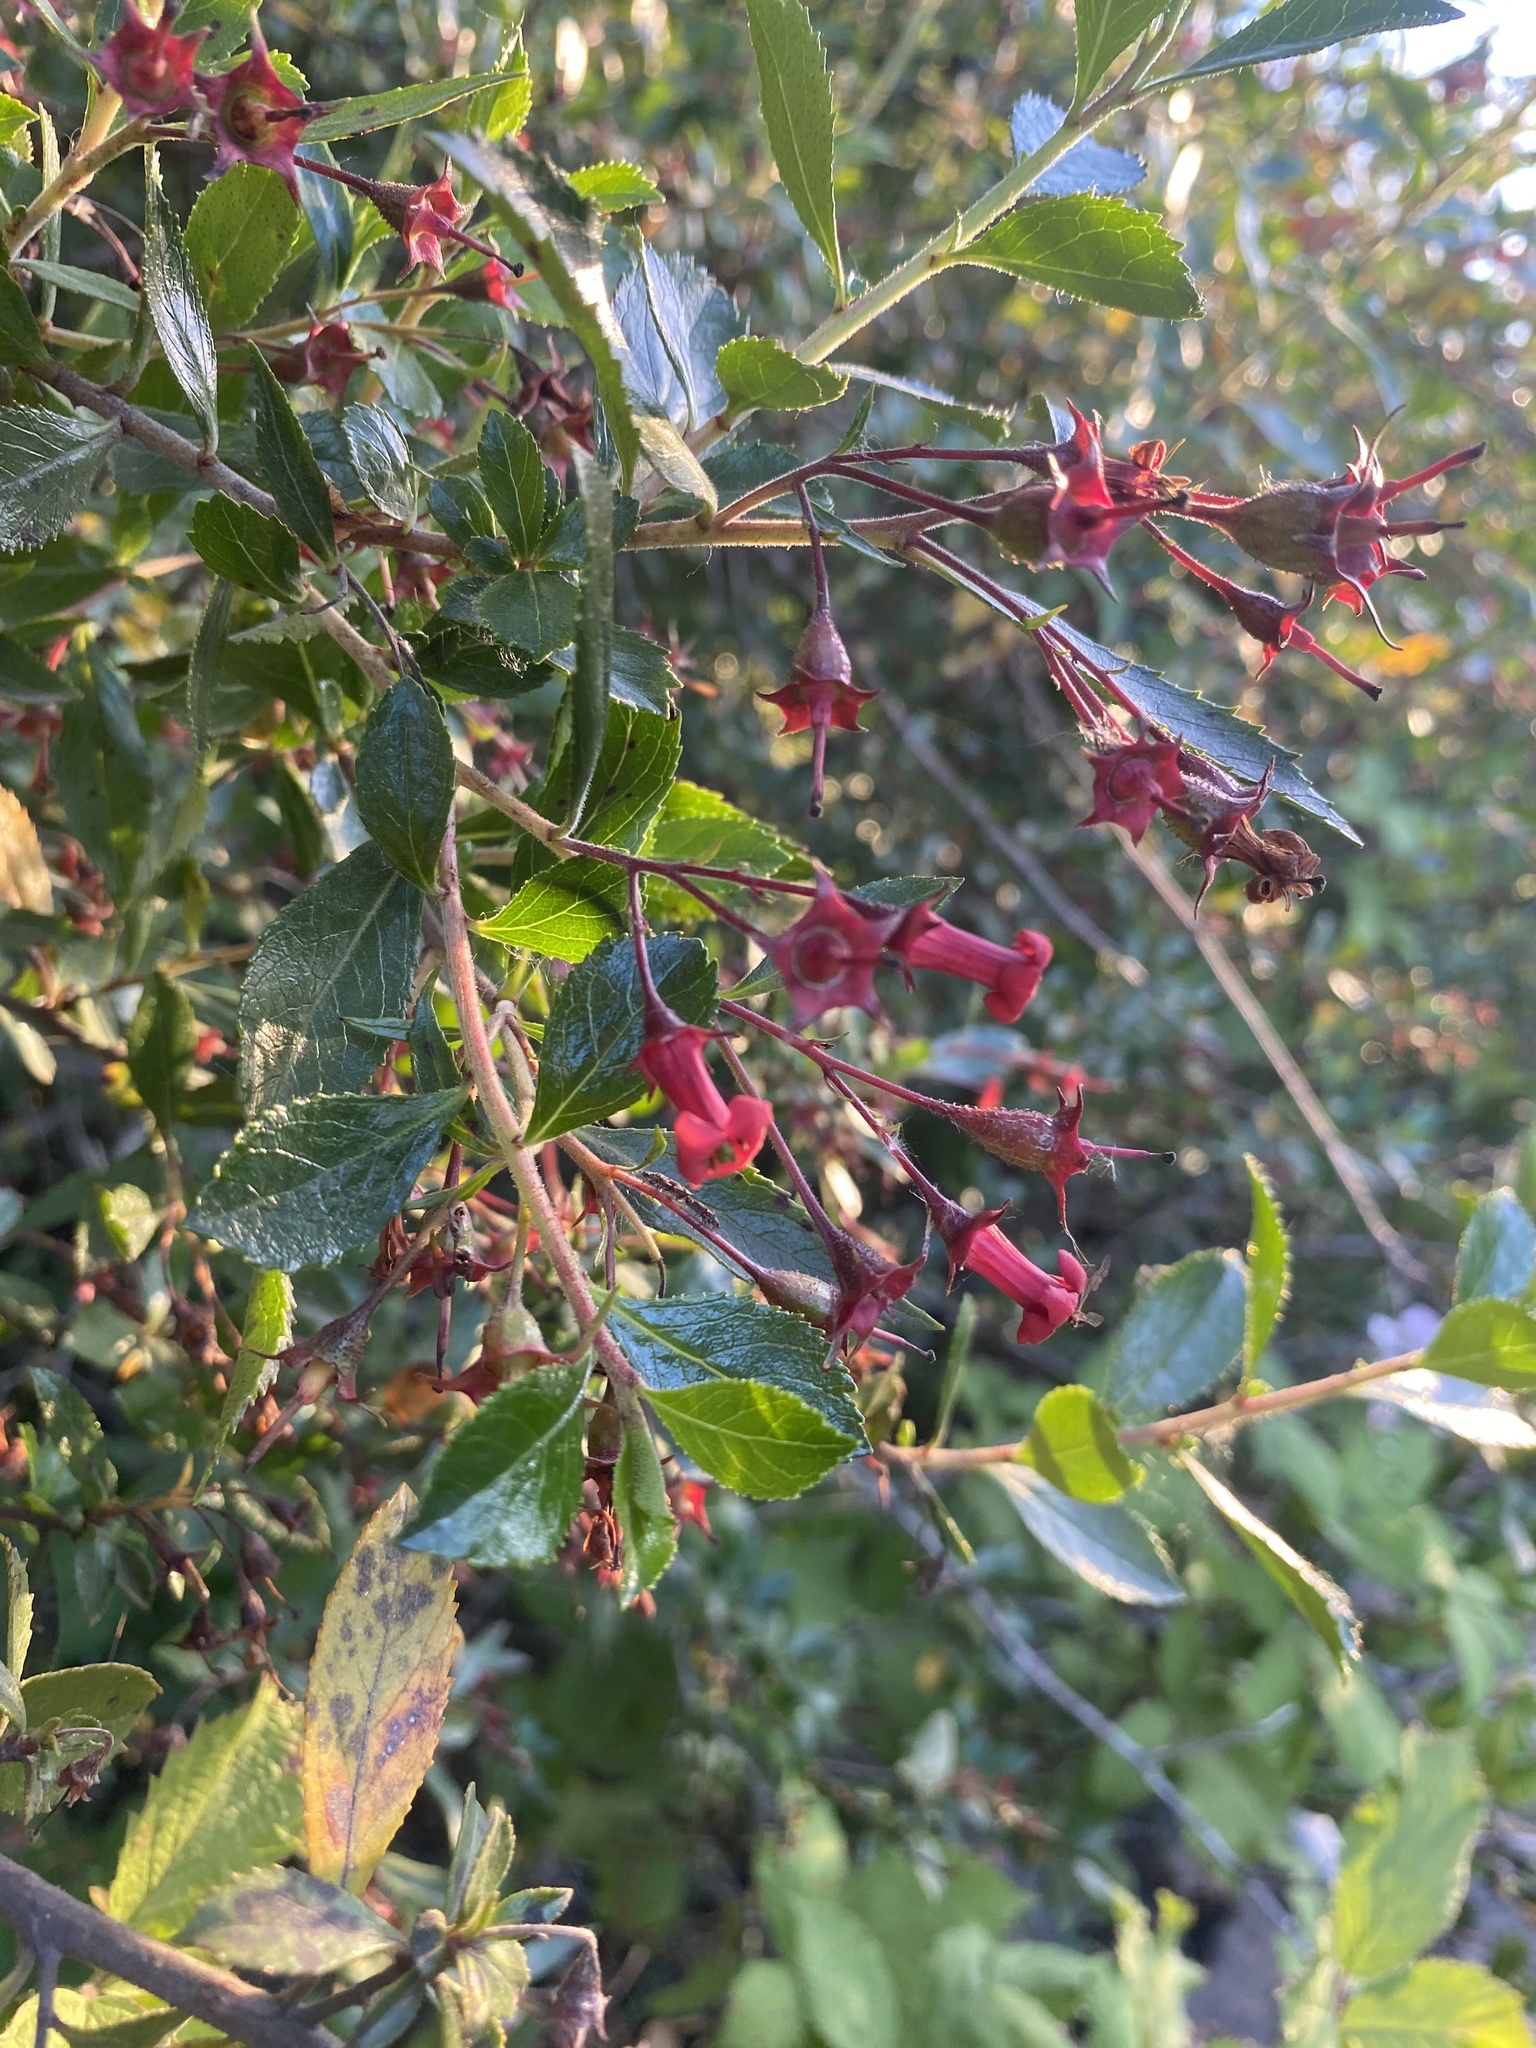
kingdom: Plantae
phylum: Tracheophyta
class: Magnoliopsida
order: Escalloniales
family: Escalloniaceae
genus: Escallonia
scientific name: Escallonia rubra
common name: Redclaws
